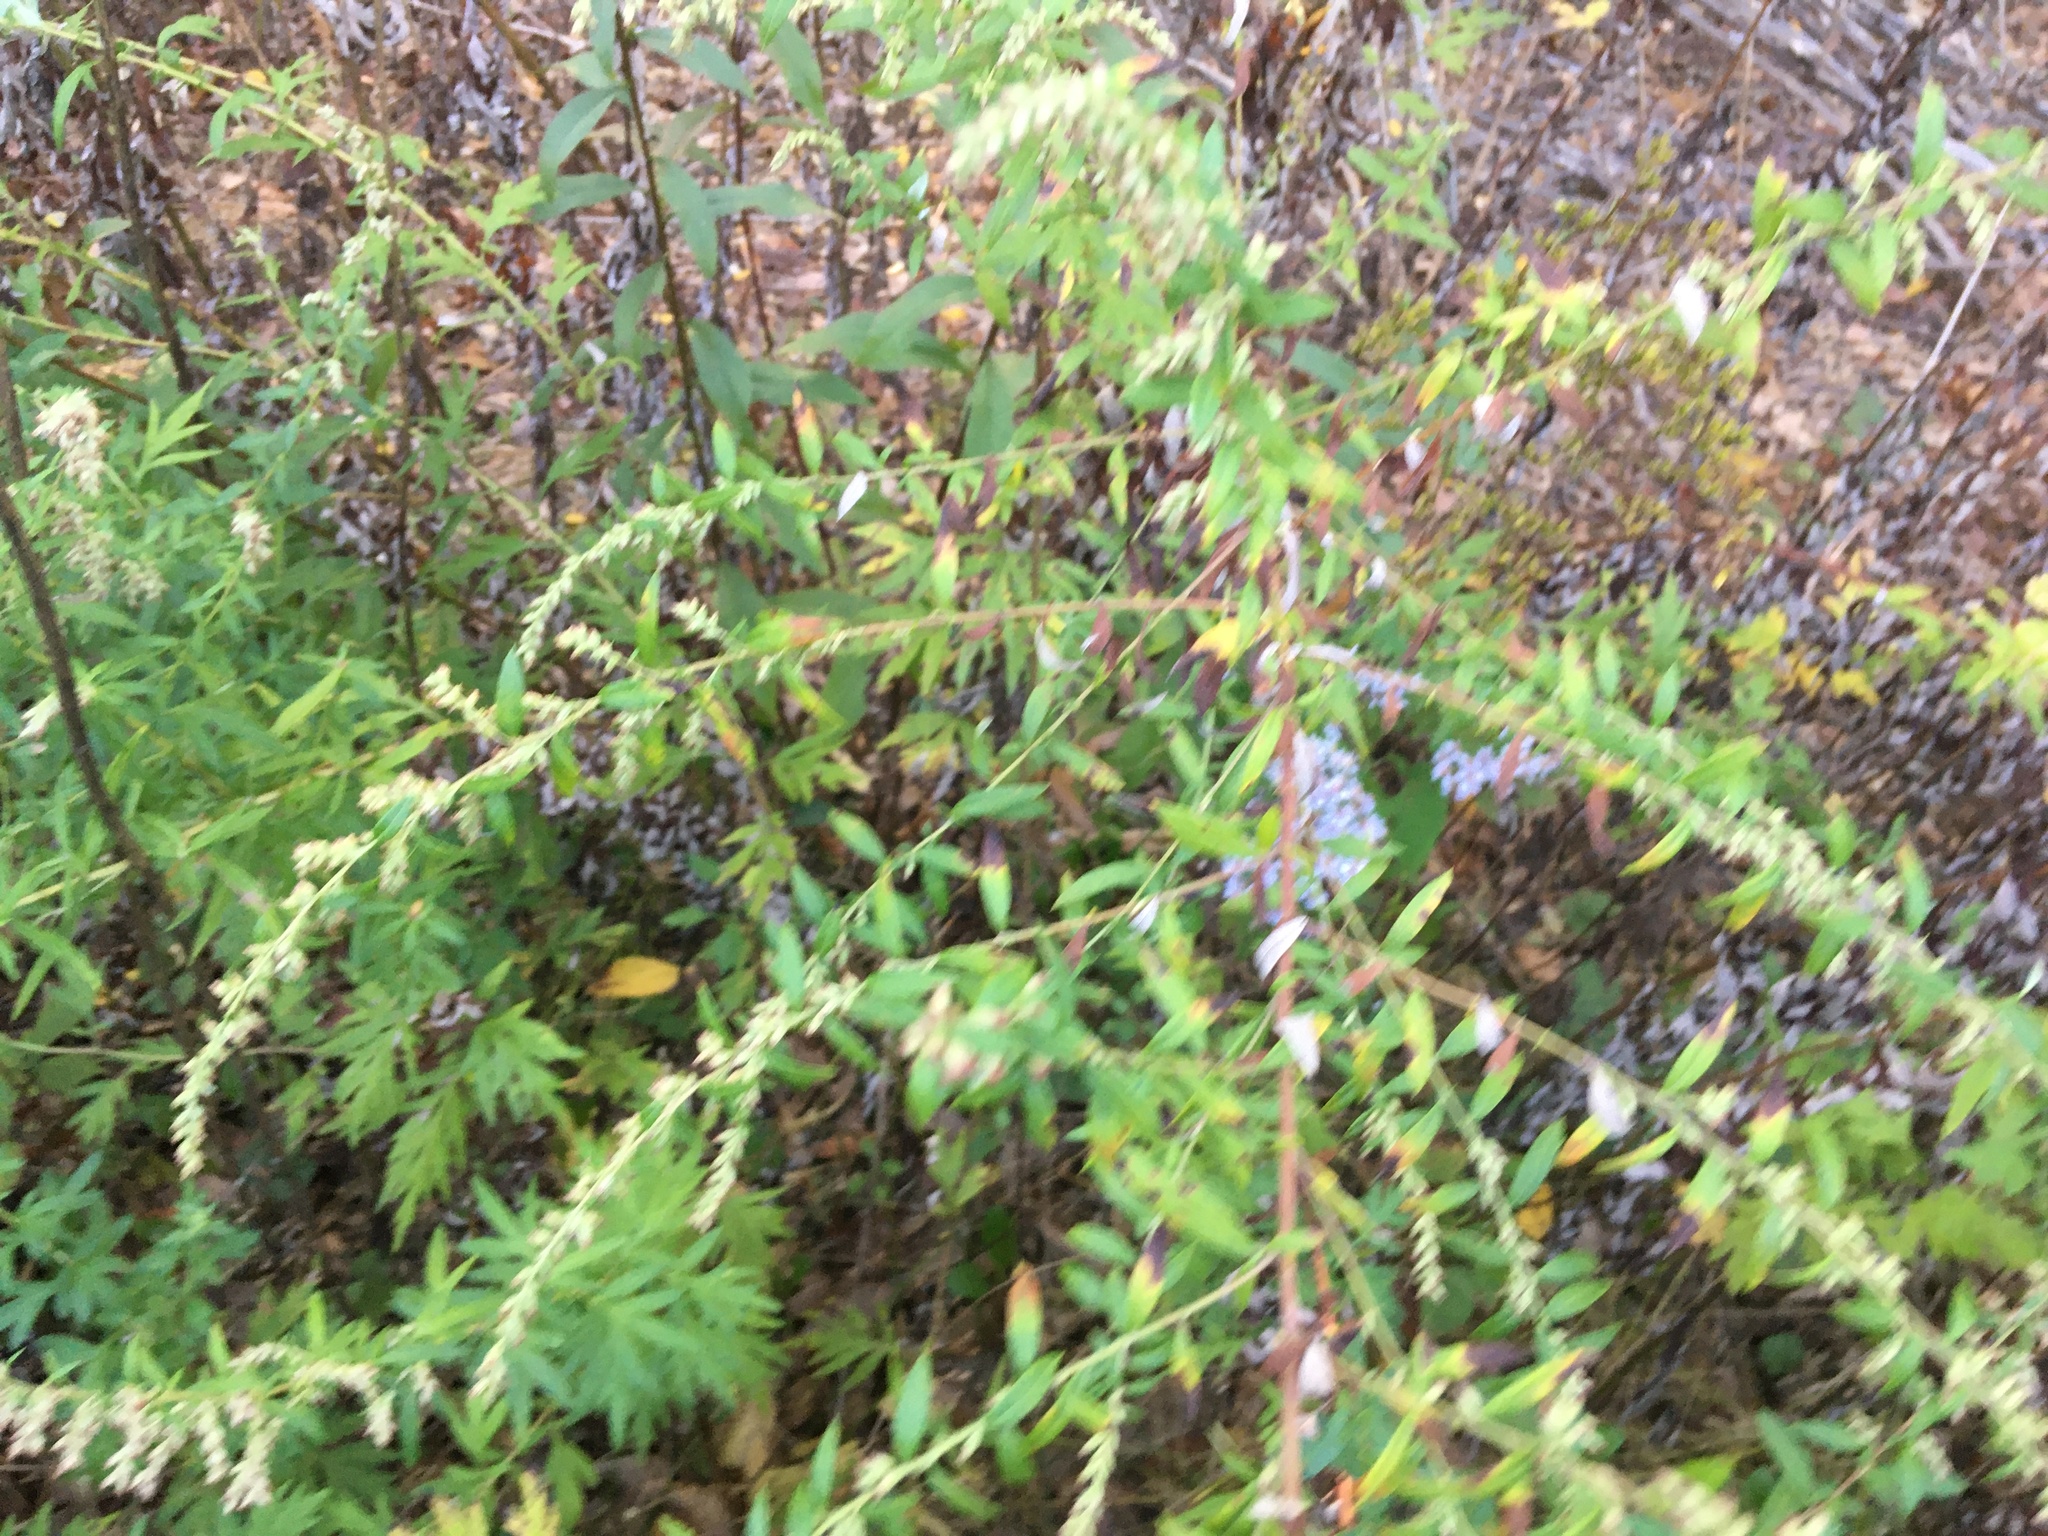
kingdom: Plantae
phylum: Tracheophyta
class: Magnoliopsida
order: Asterales
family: Asteraceae
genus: Artemisia
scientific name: Artemisia vulgaris
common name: Mugwort
